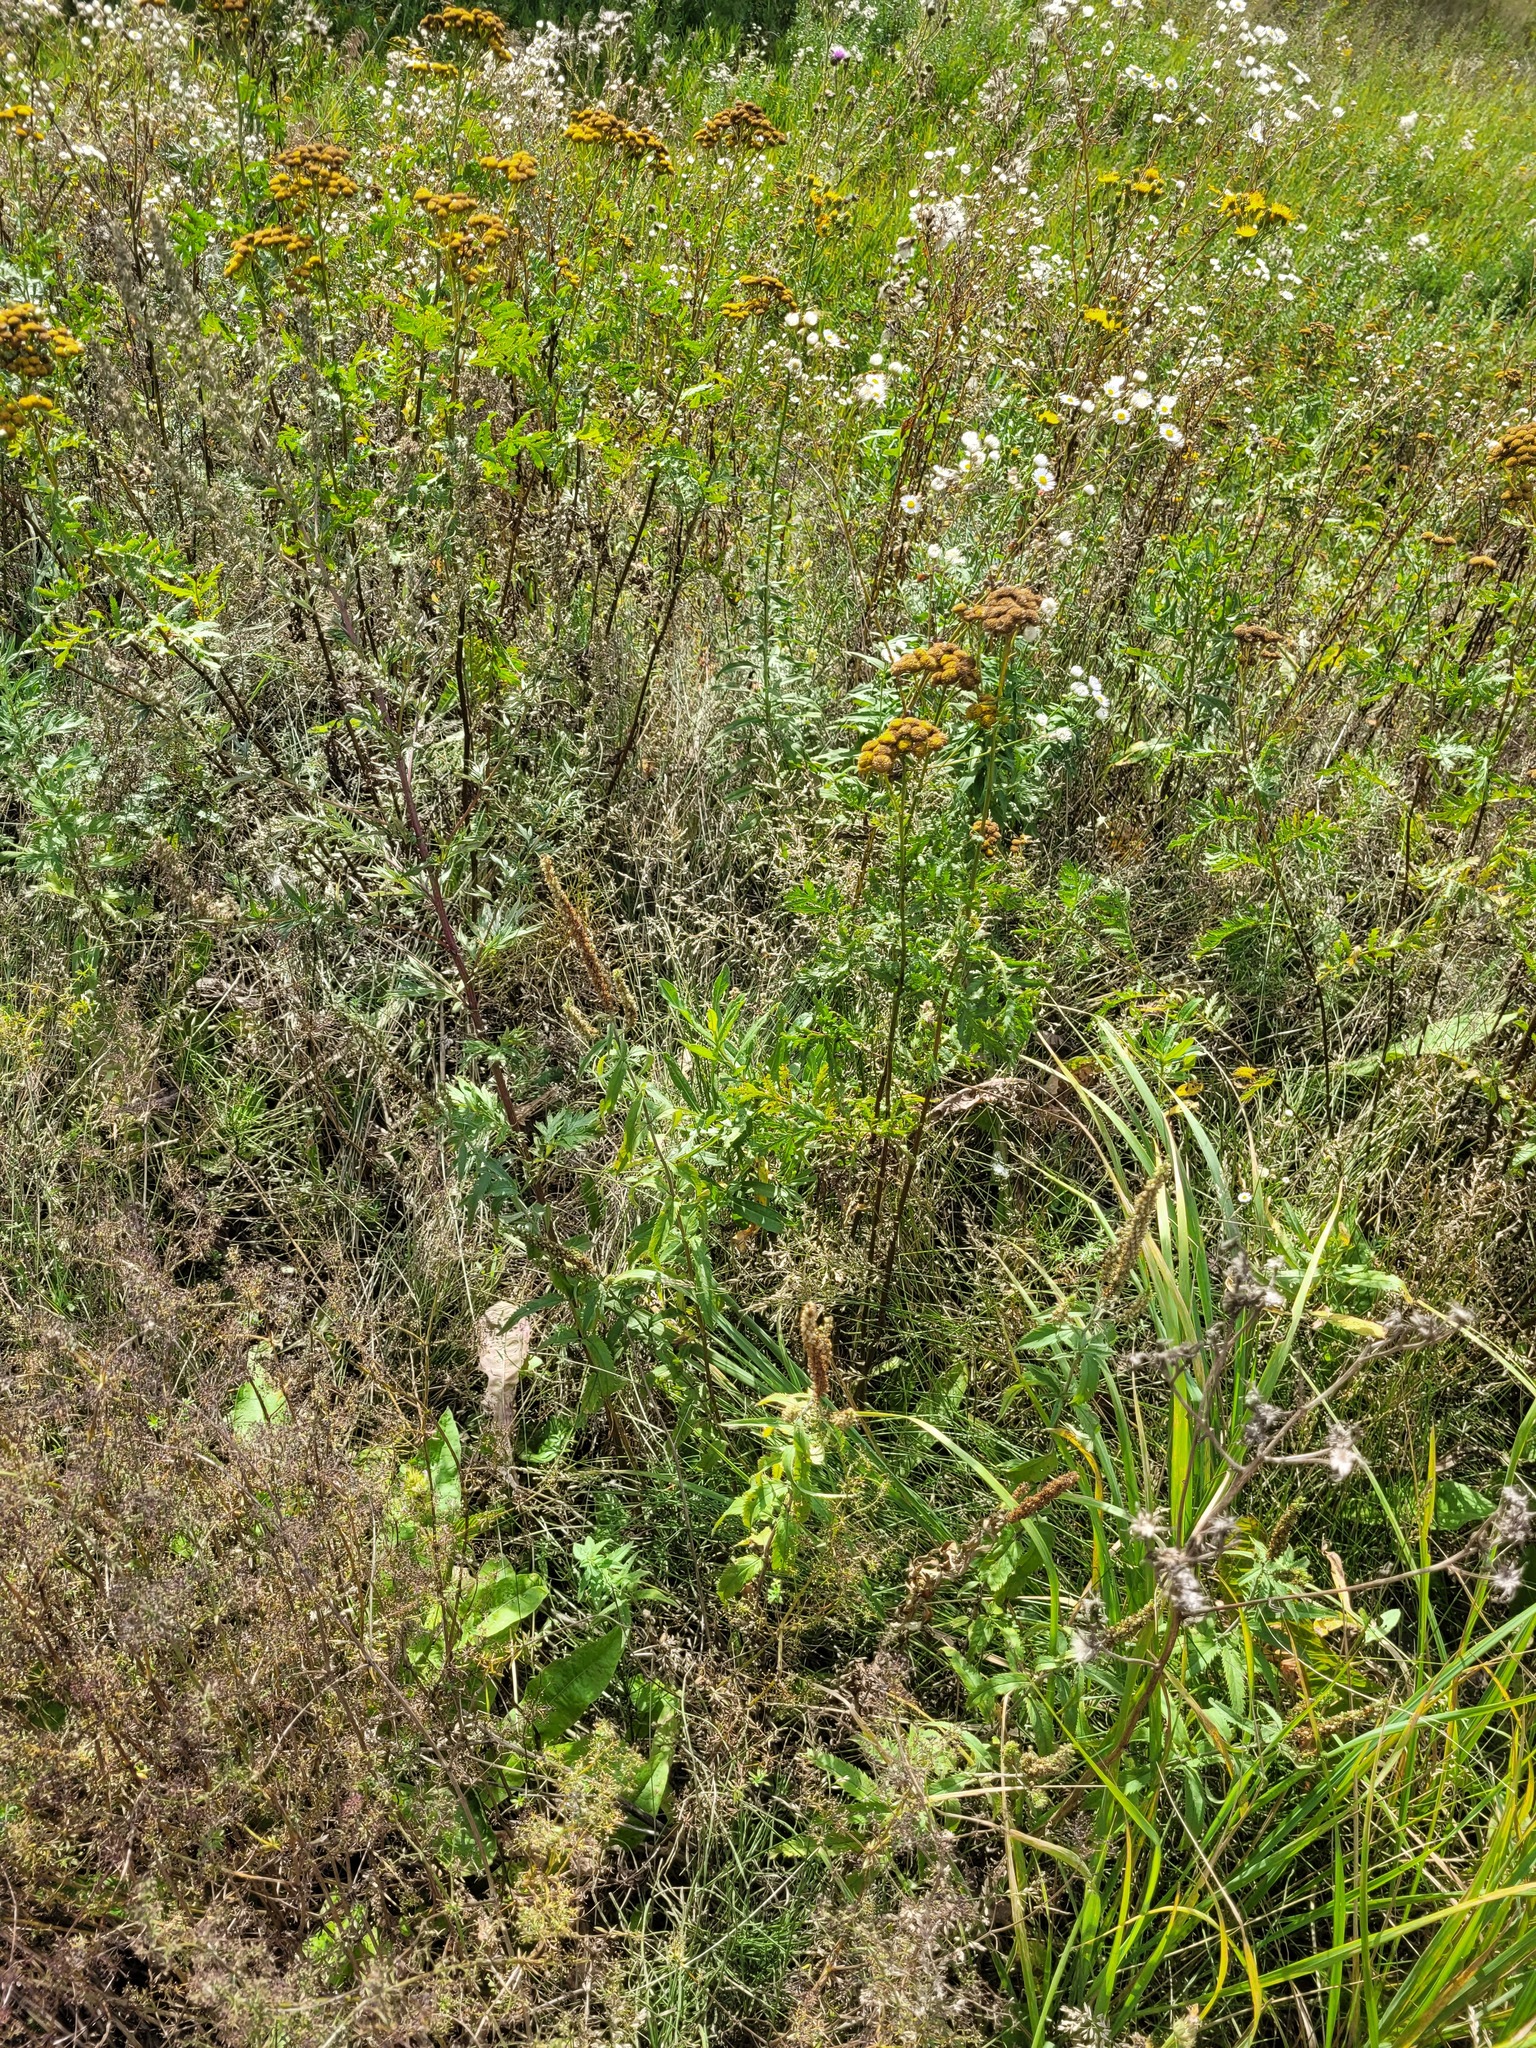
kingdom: Plantae
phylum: Tracheophyta
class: Magnoliopsida
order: Asterales
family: Asteraceae
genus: Tanacetum
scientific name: Tanacetum vulgare
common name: Common tansy
